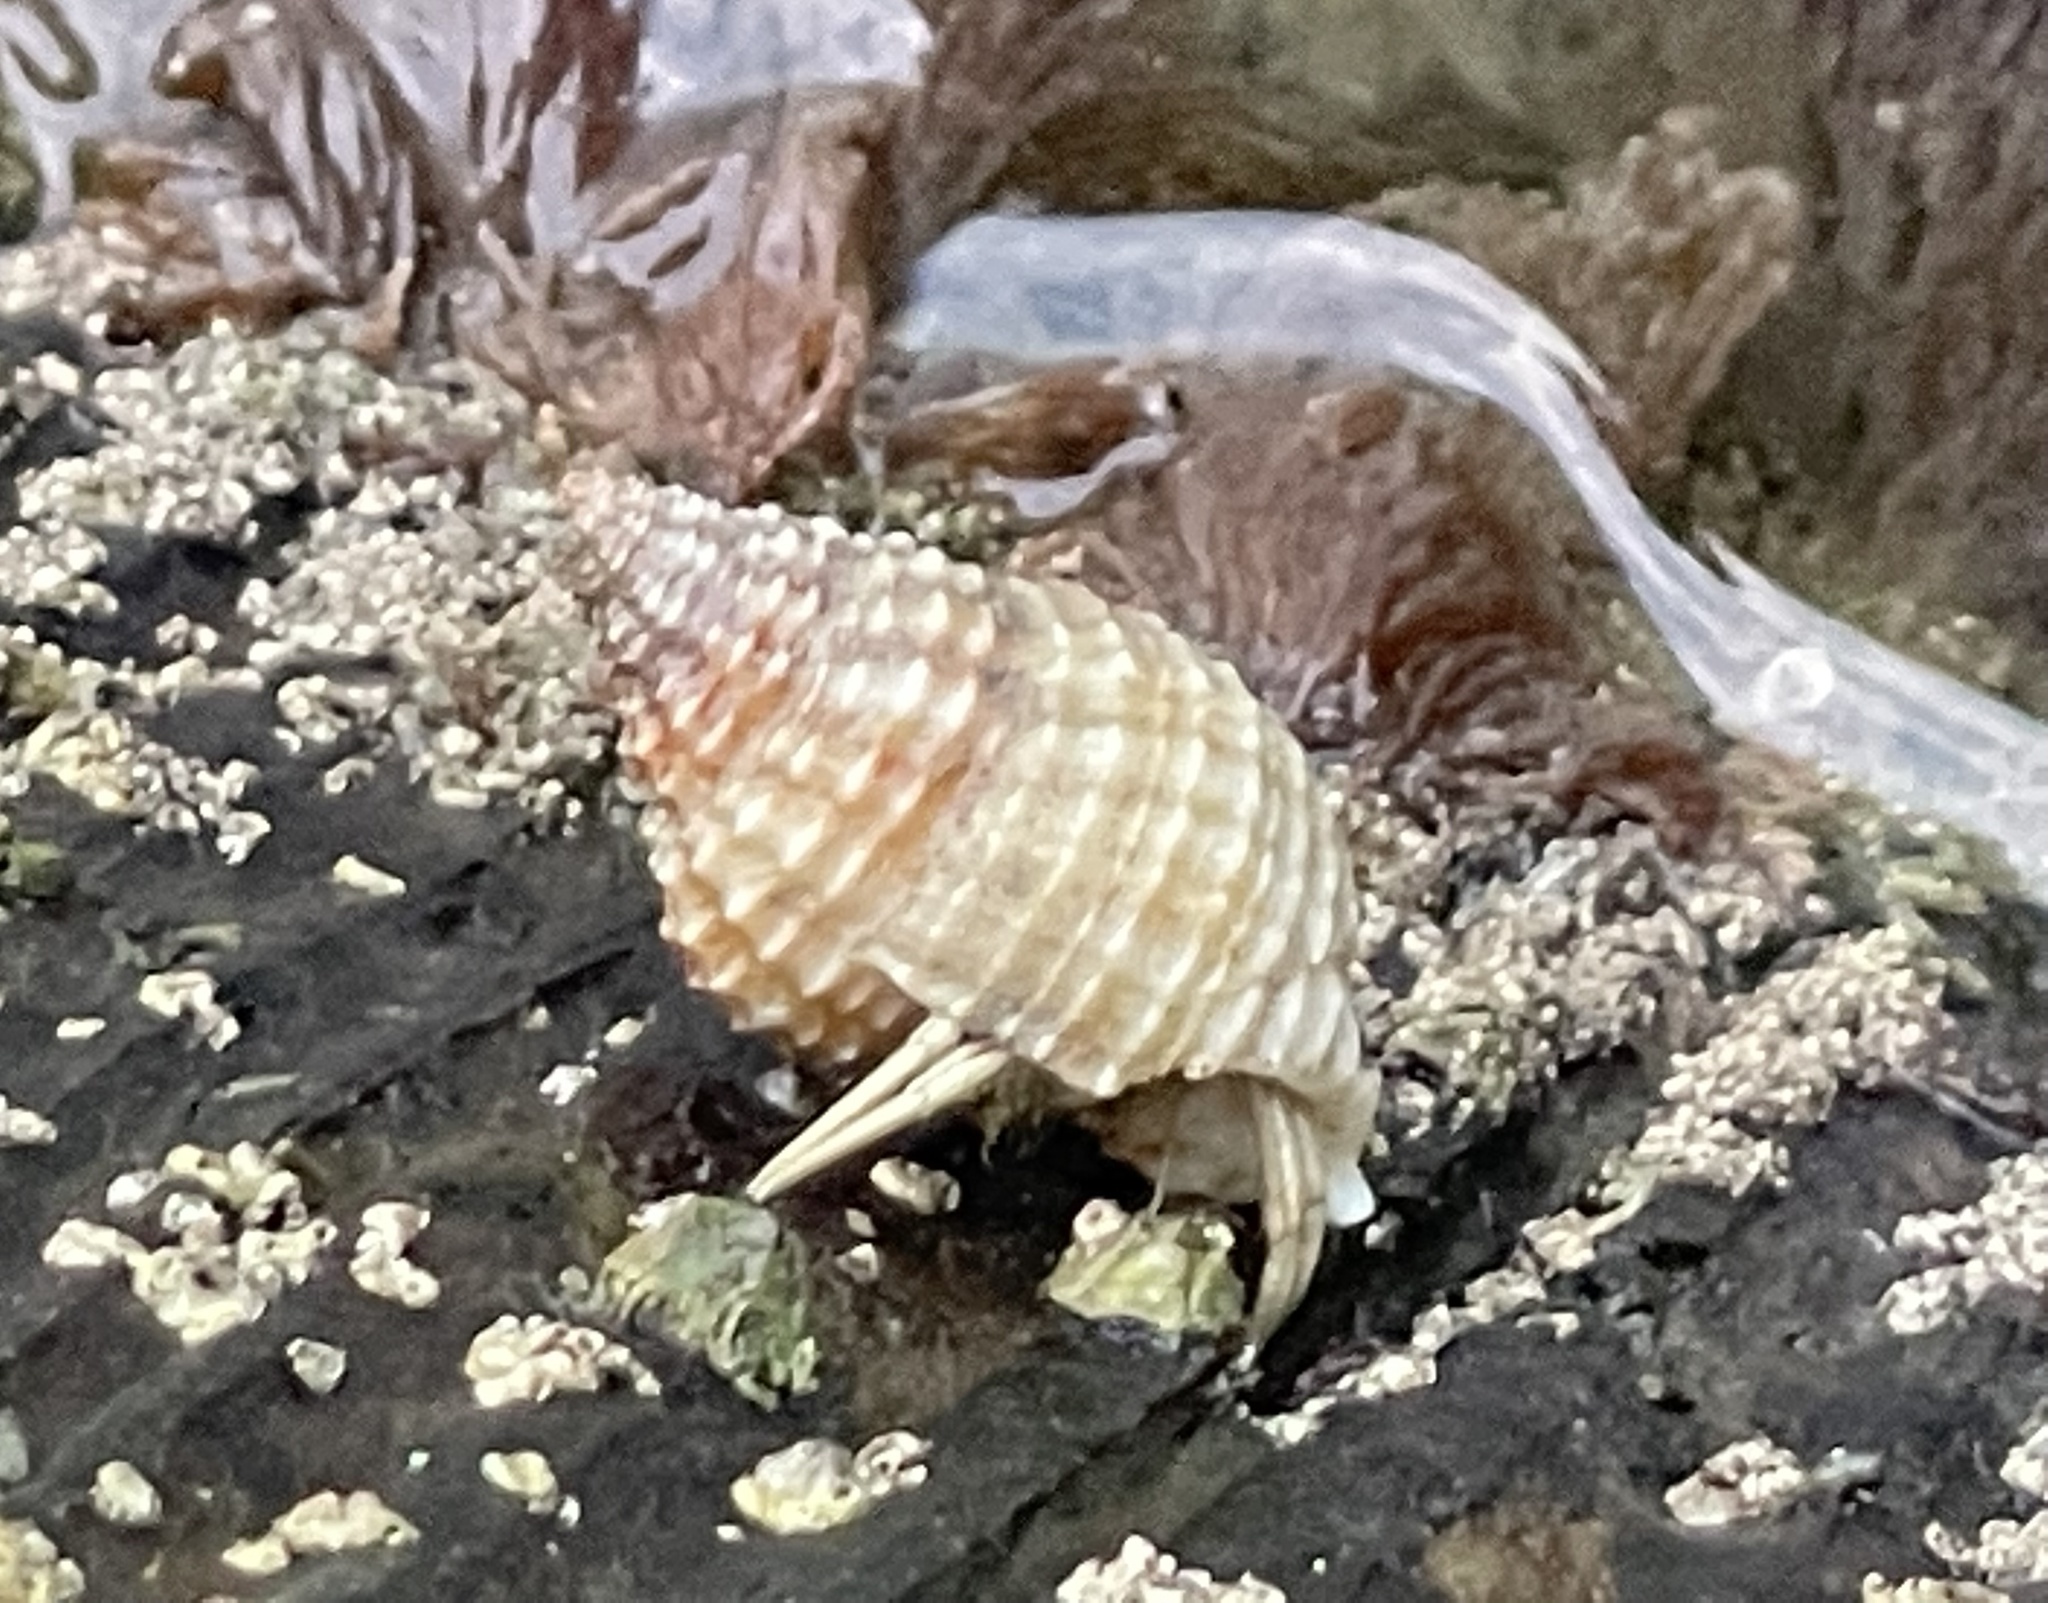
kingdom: Animalia
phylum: Mollusca
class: Gastropoda
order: Neogastropoda
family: Pisaniidae
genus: Solenosteira
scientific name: Solenosteira cancellaria
